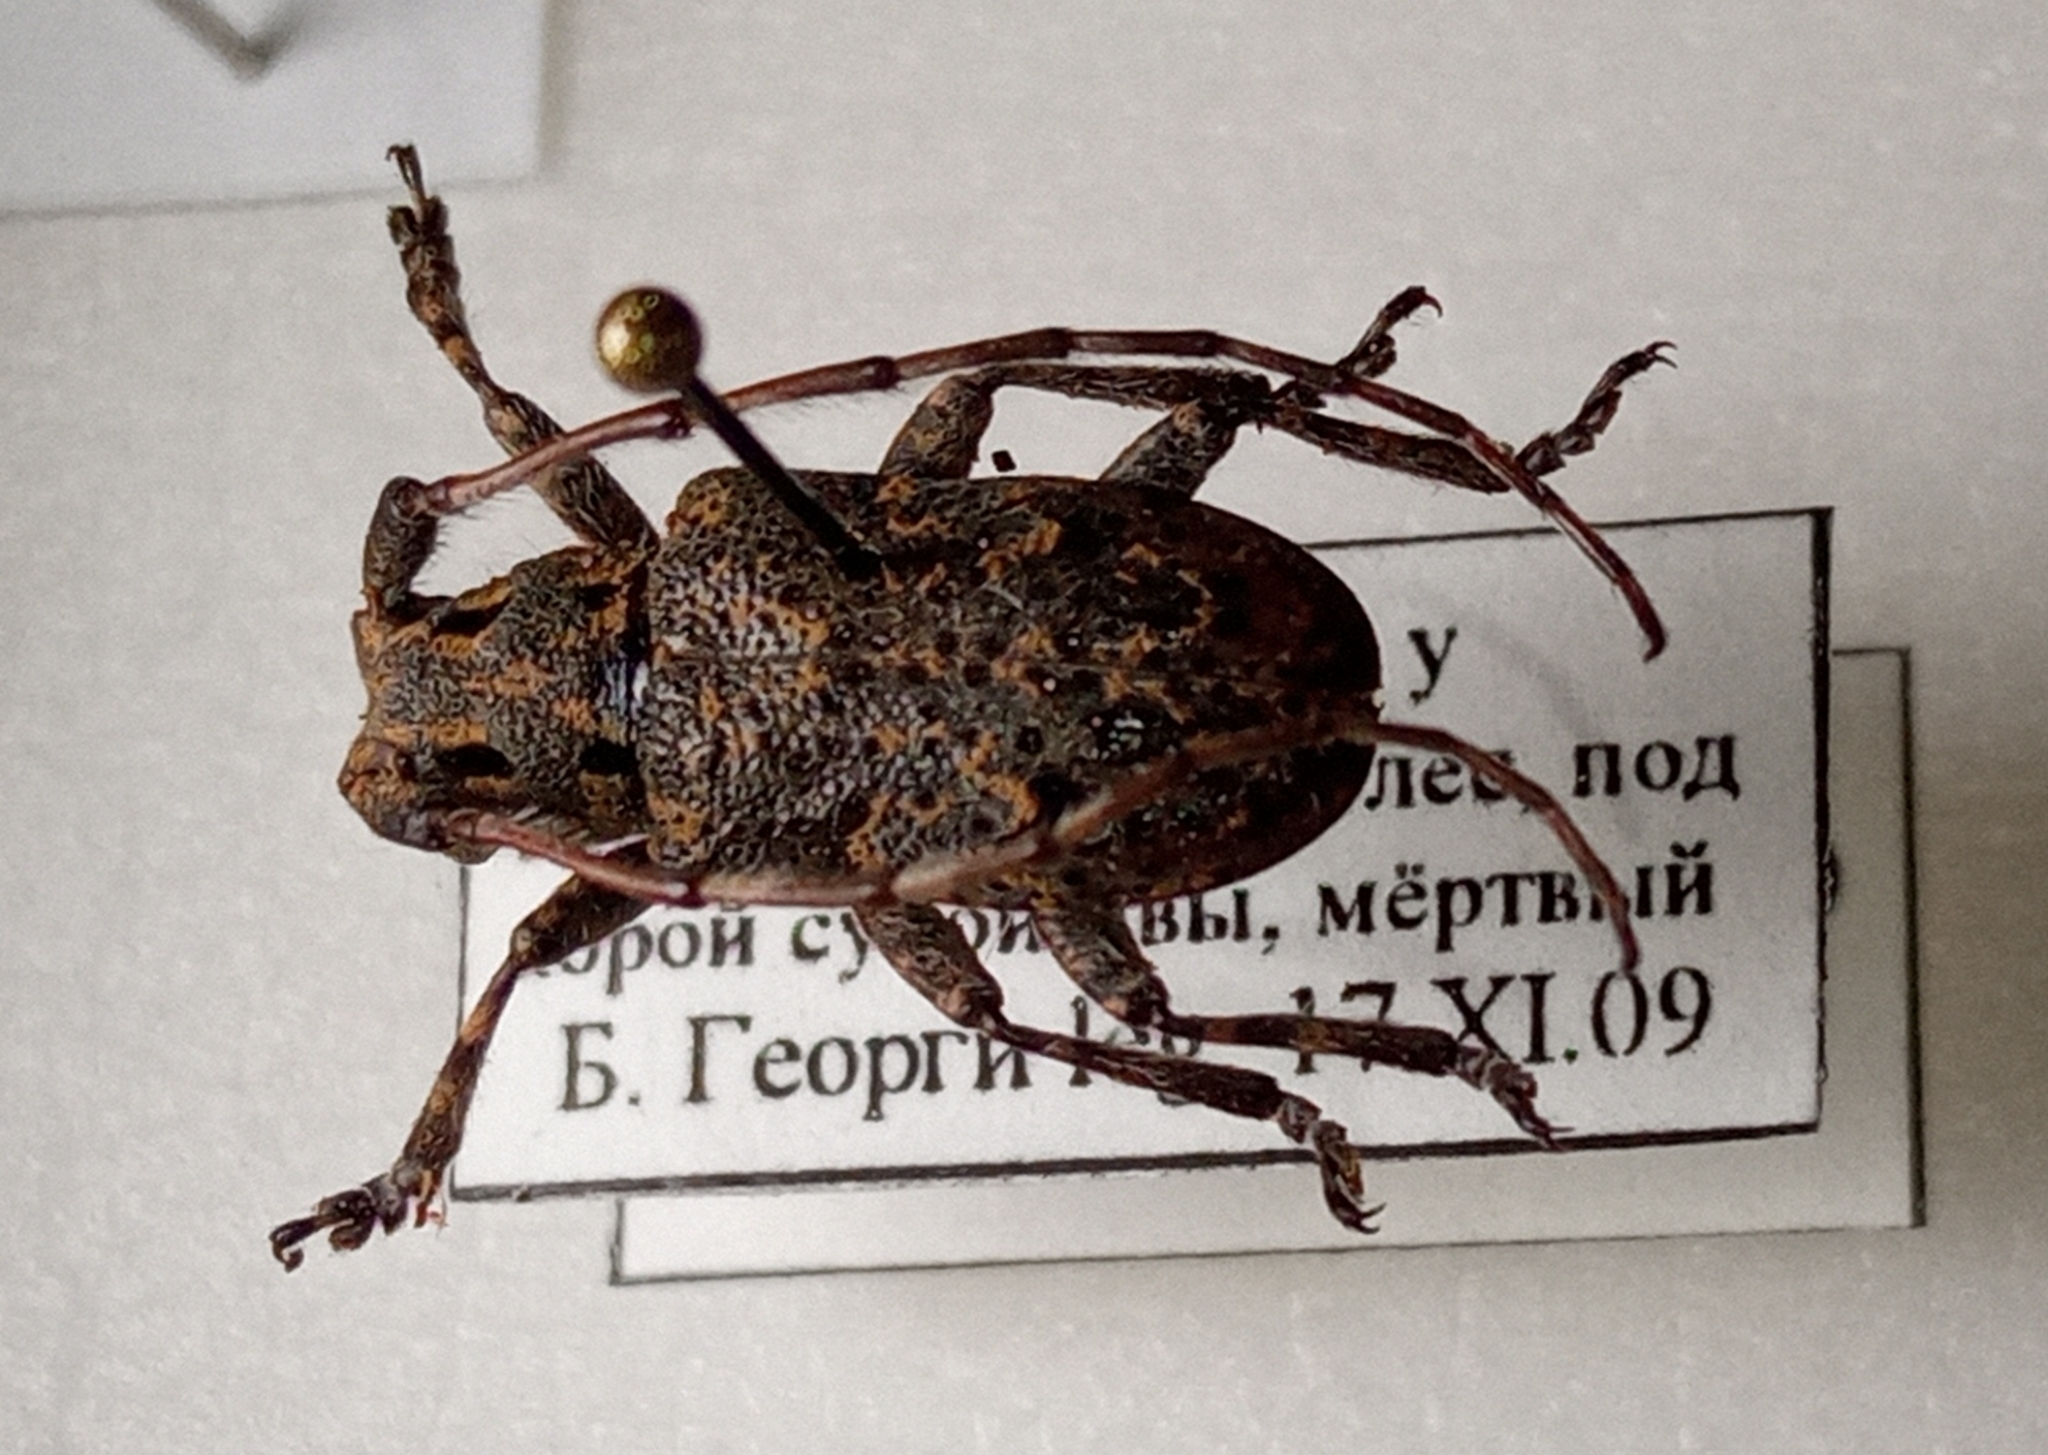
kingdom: Animalia
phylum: Arthropoda
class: Insecta
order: Coleoptera
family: Cerambycidae
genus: Mesosa
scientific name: Mesosa myops
